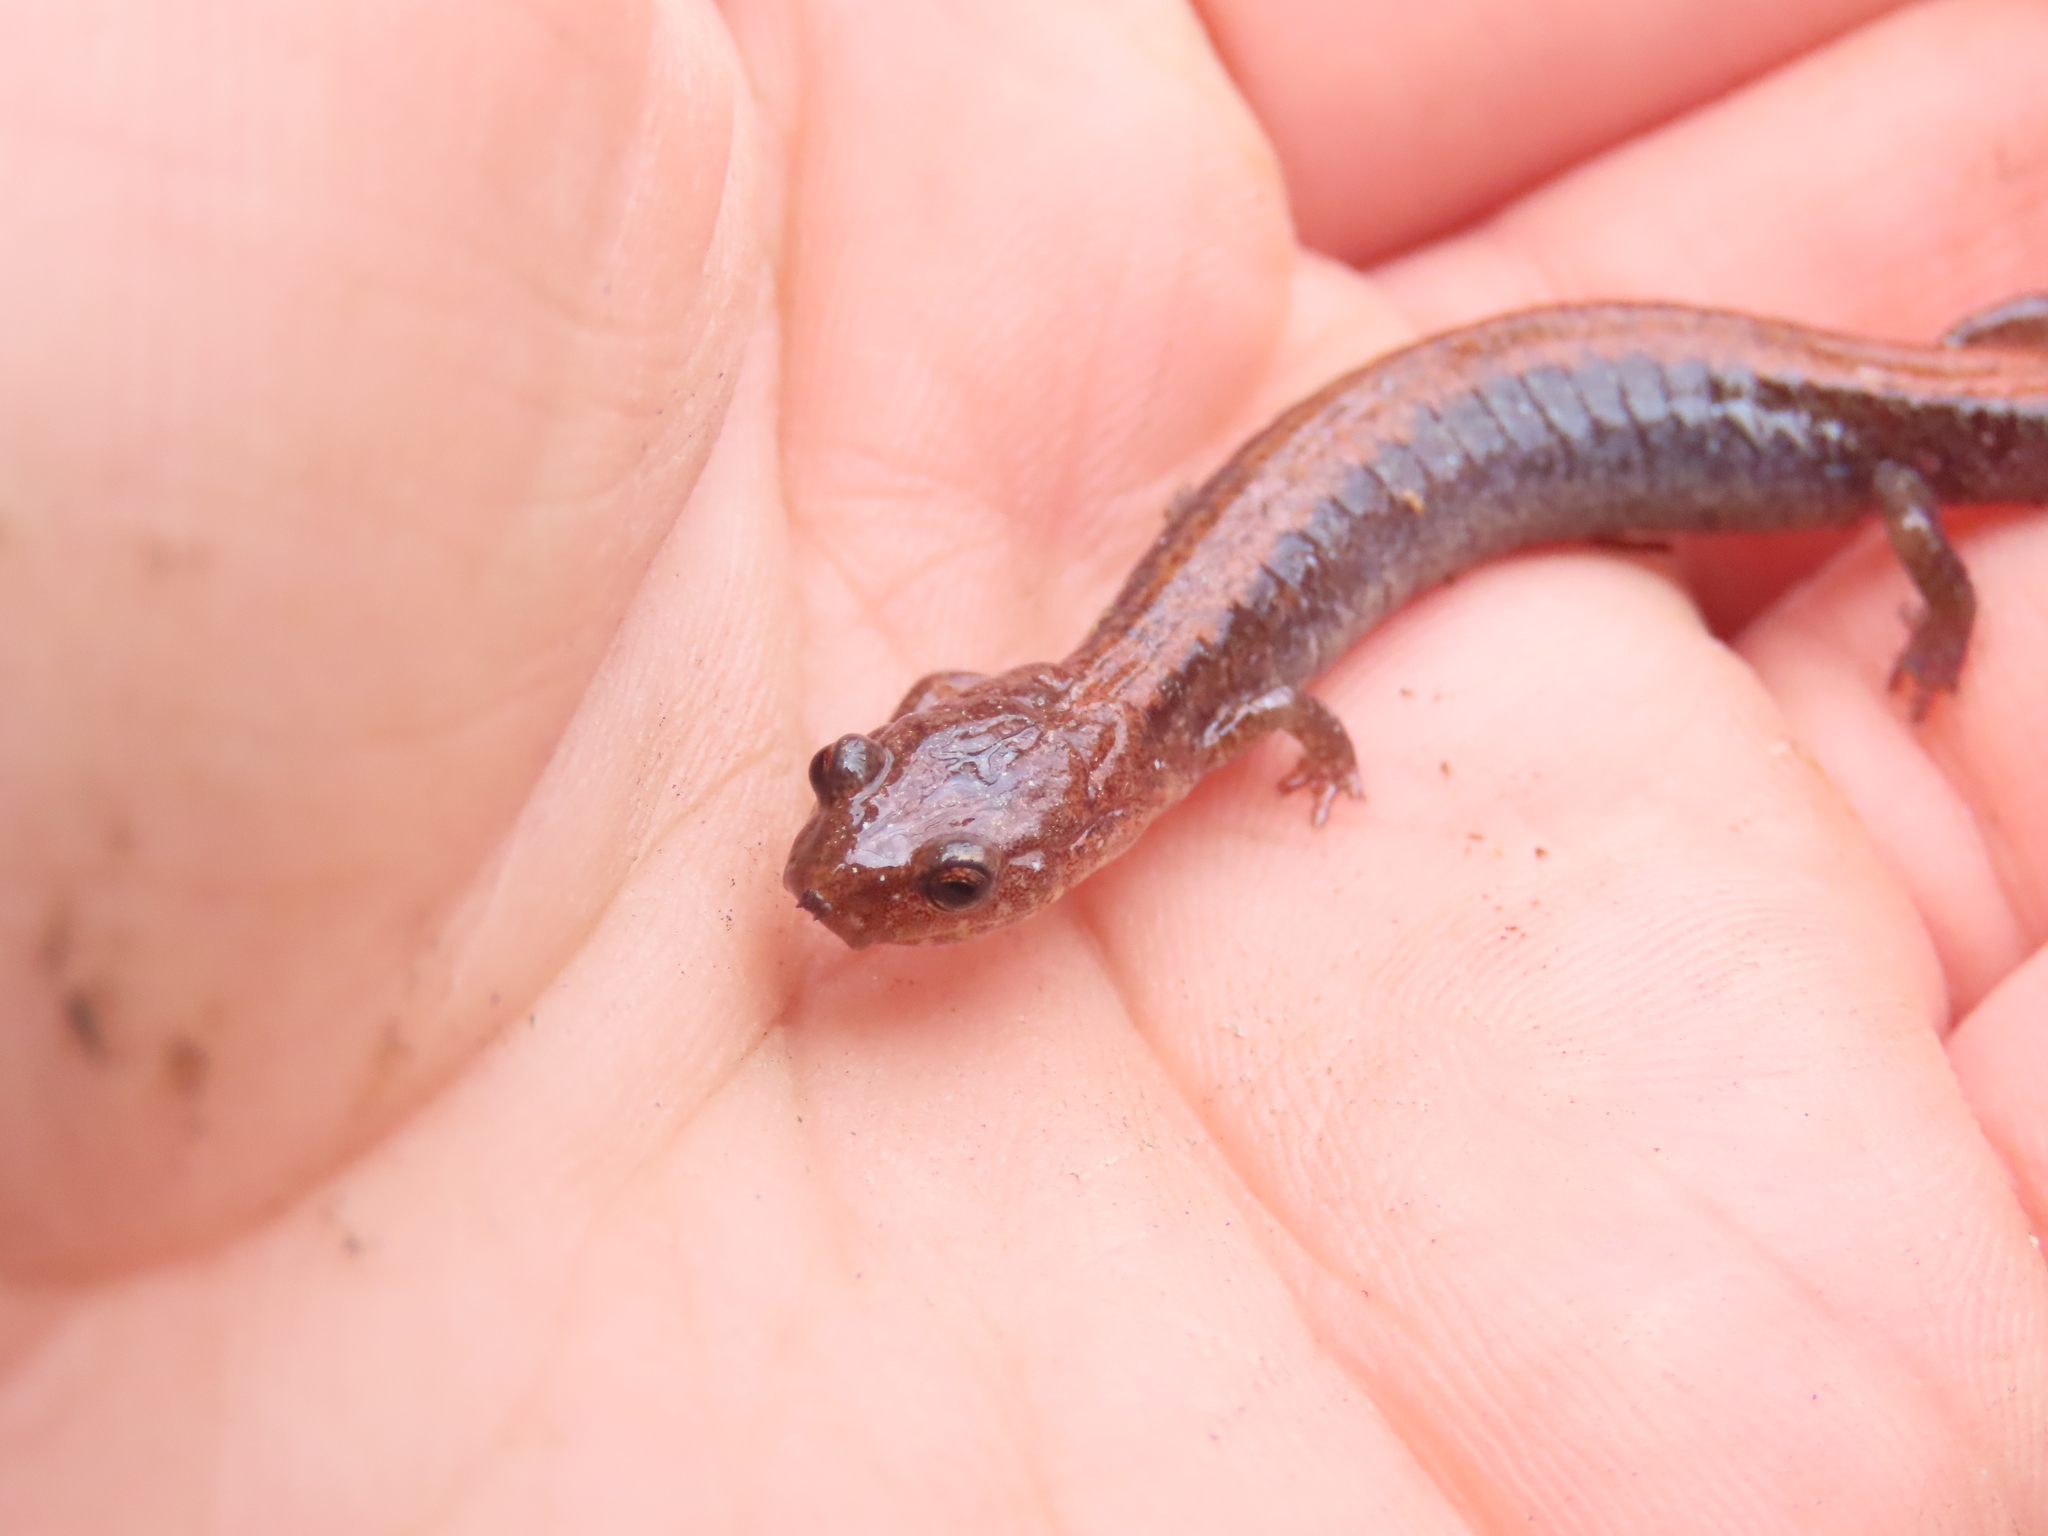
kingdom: Animalia
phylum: Chordata
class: Amphibia
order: Caudata
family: Plethodontidae
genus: Plethodon
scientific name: Plethodon cinereus
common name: Redback salamander
